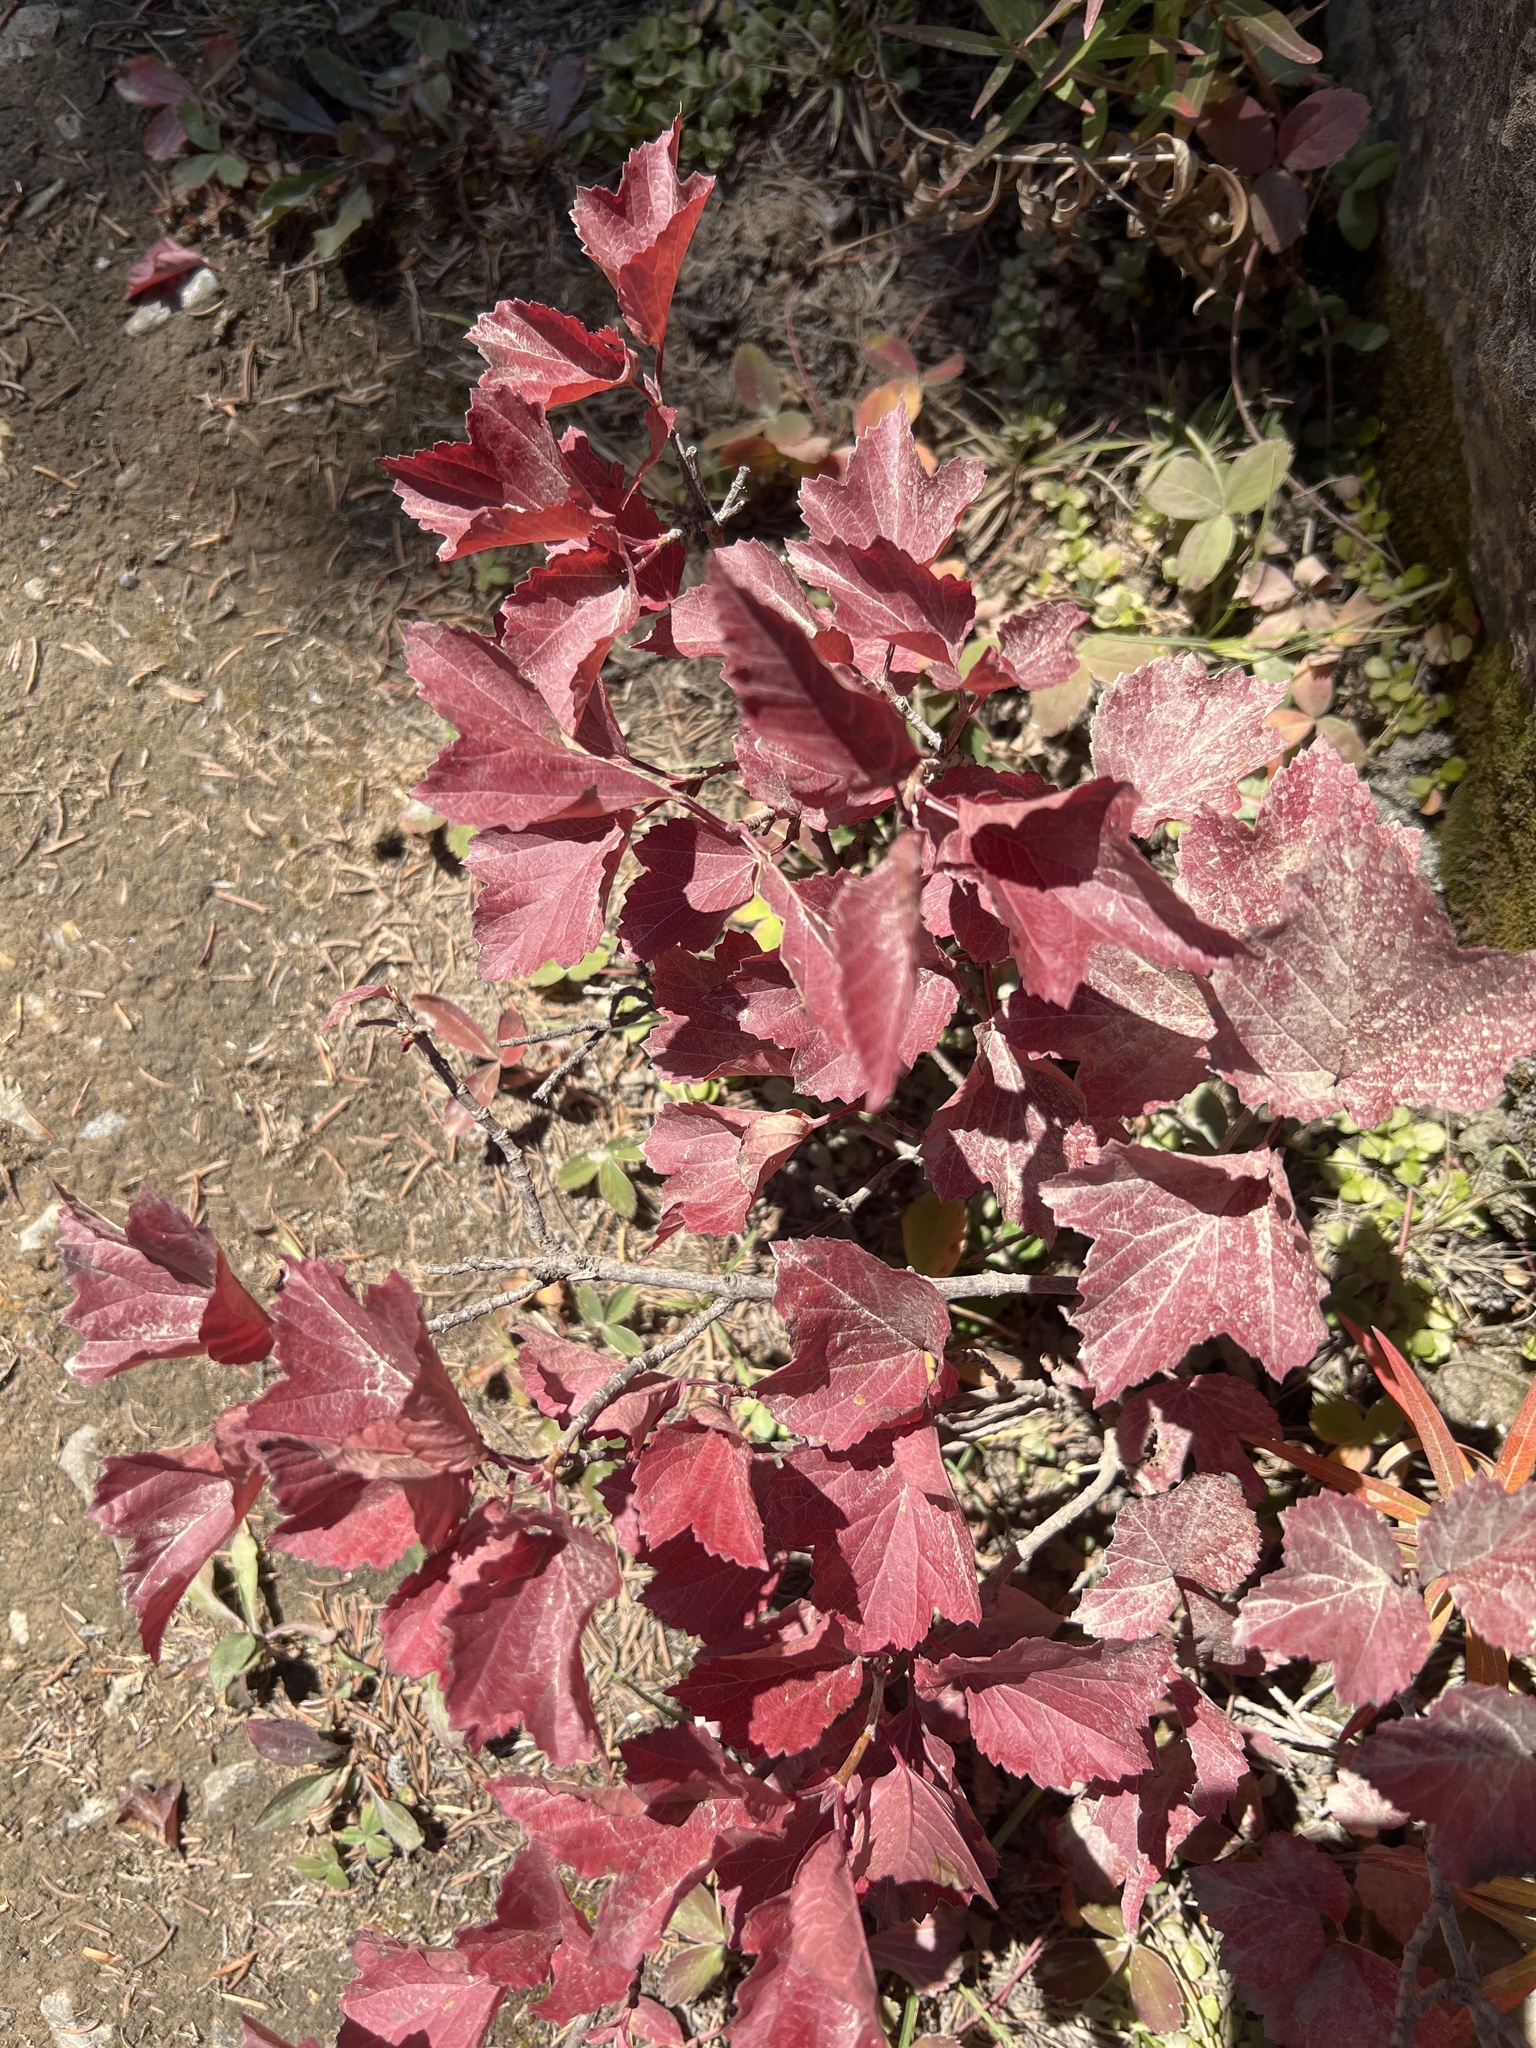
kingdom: Plantae
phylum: Tracheophyta
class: Magnoliopsida
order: Dipsacales
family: Viburnaceae
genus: Viburnum
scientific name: Viburnum edule
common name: Mooseberry
